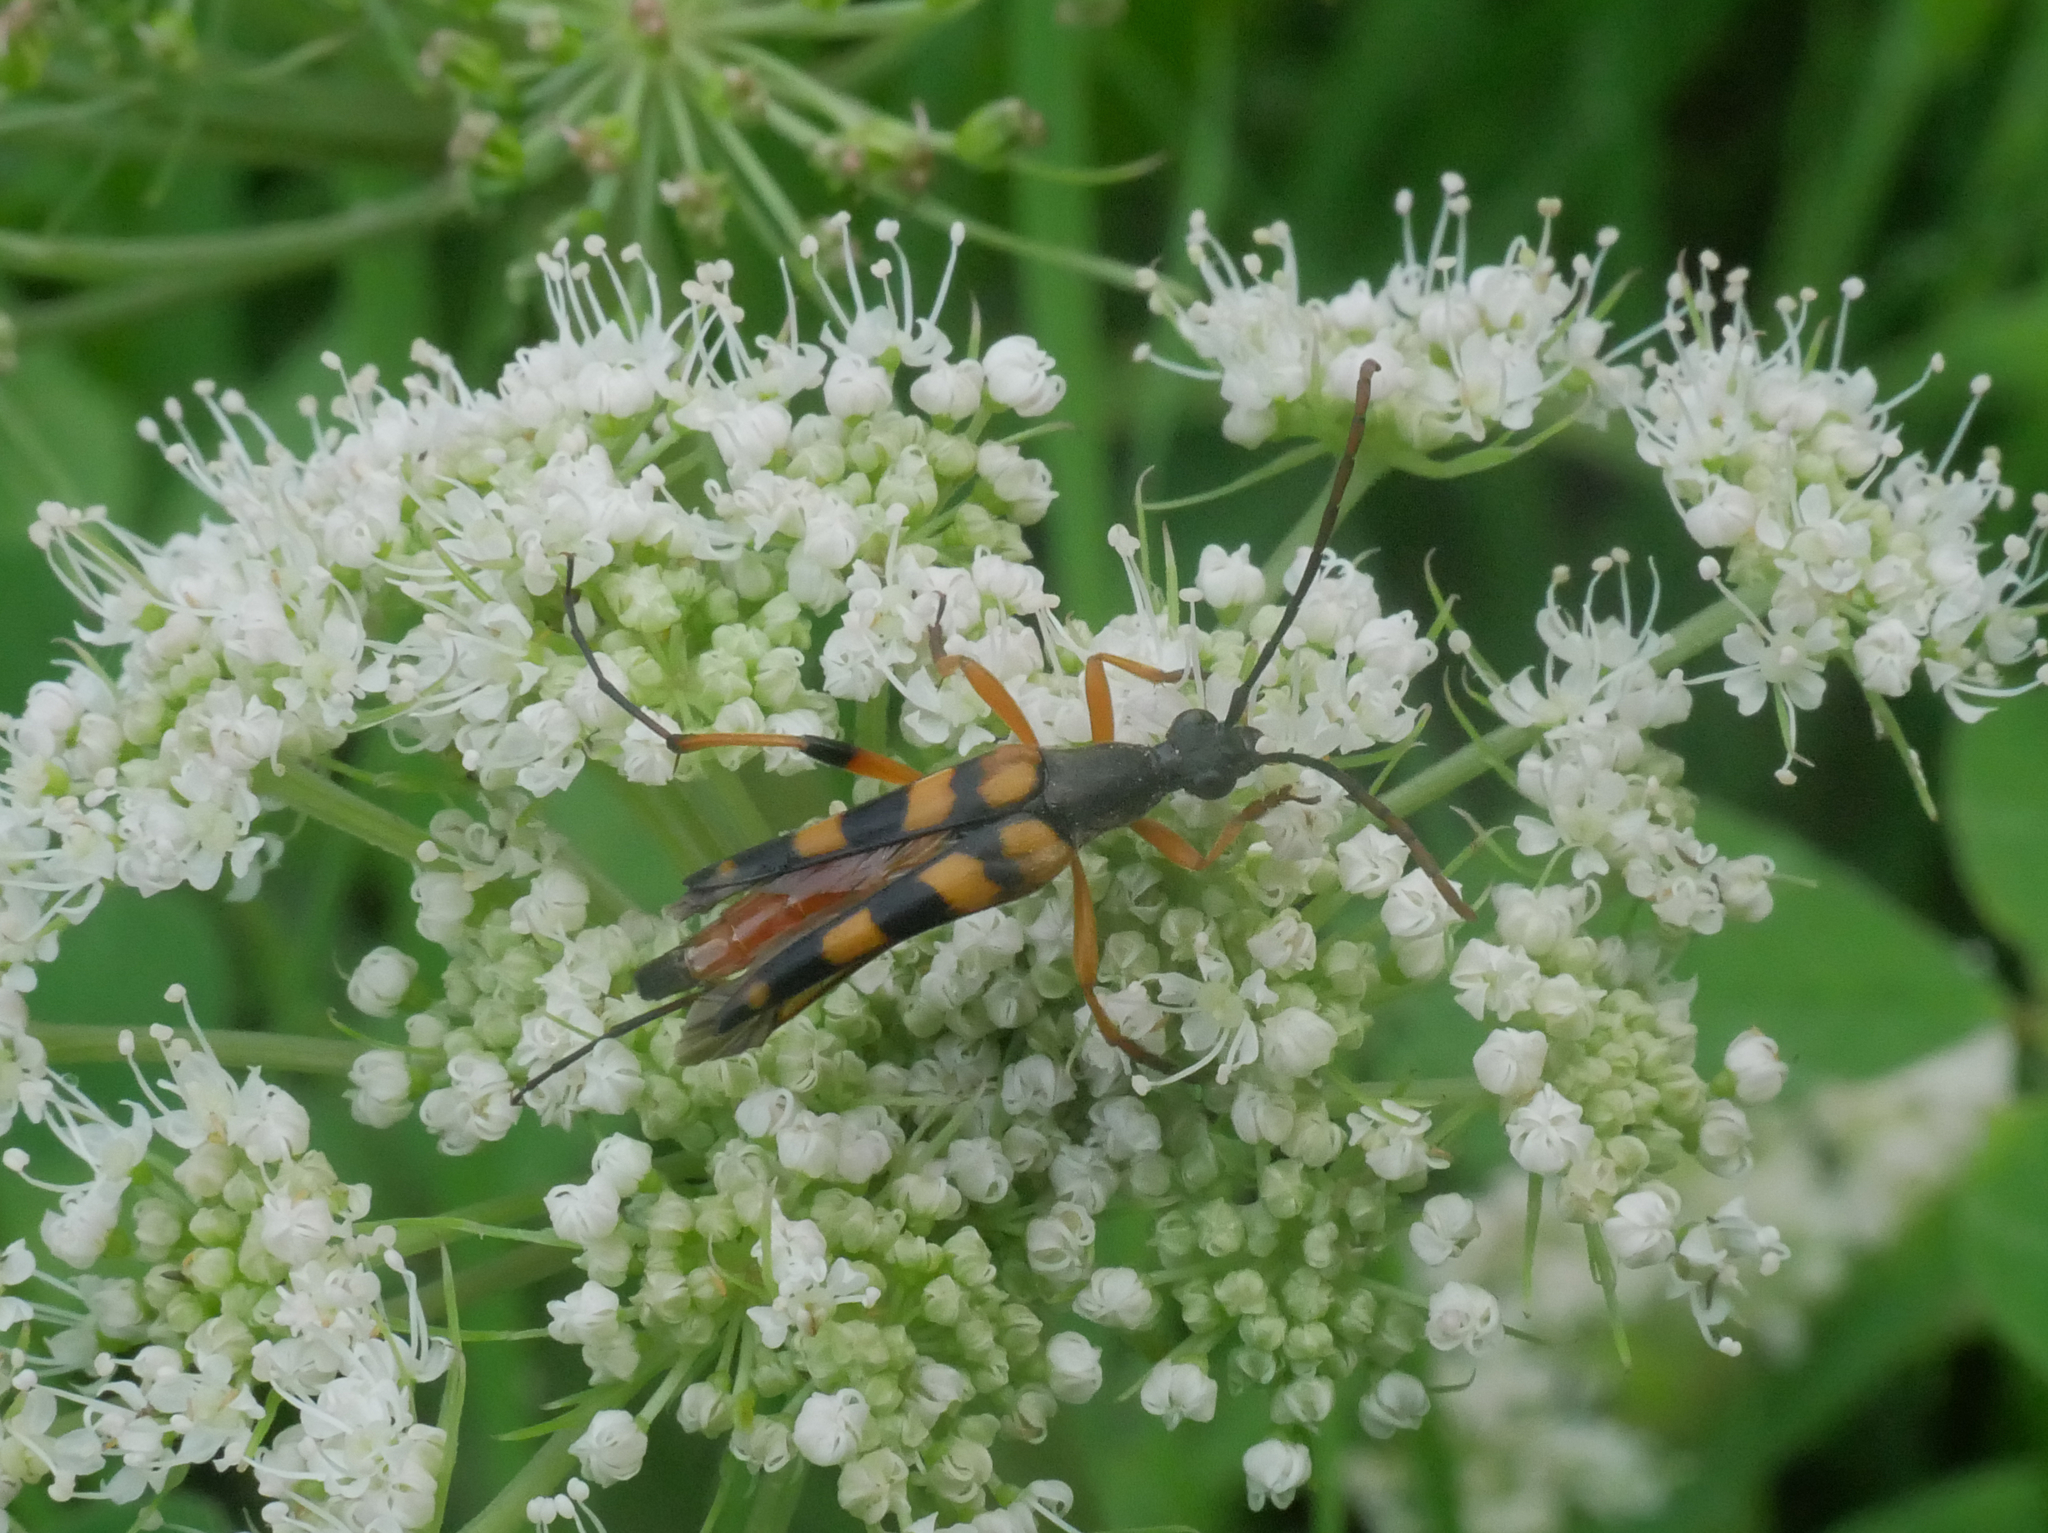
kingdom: Animalia
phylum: Arthropoda
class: Insecta
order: Coleoptera
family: Cerambycidae
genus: Strangalia
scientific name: Strangalia attenuata
